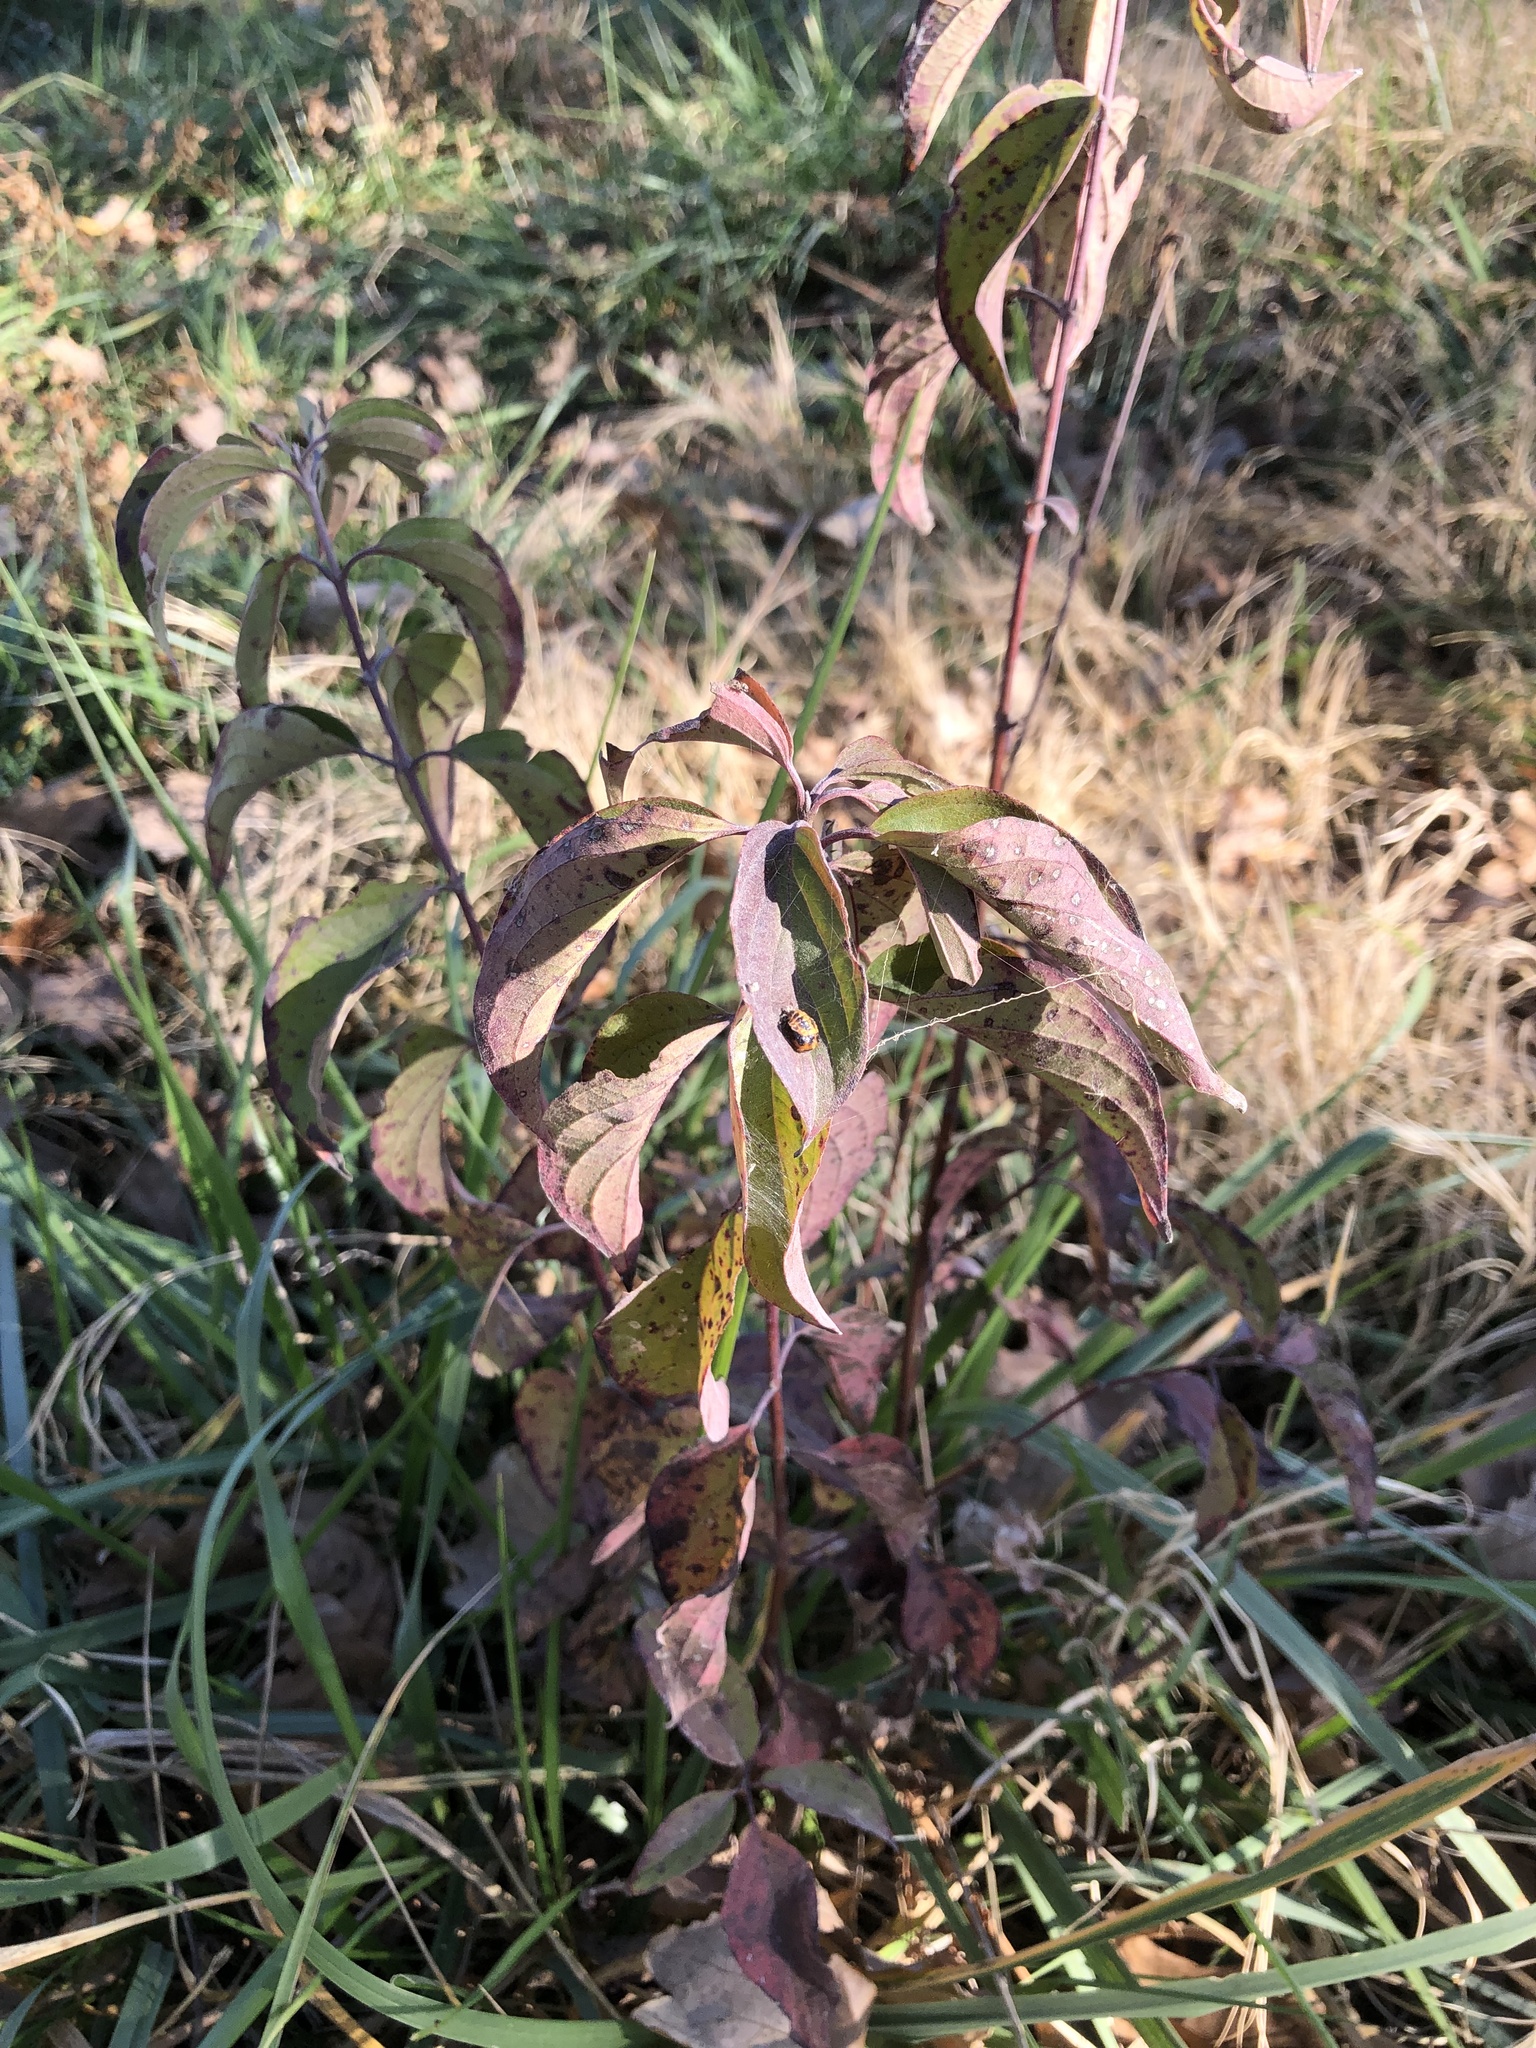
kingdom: Plantae
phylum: Tracheophyta
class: Magnoliopsida
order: Cornales
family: Cornaceae
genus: Cornus
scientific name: Cornus drummondii
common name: Rough-leaf dogwood
